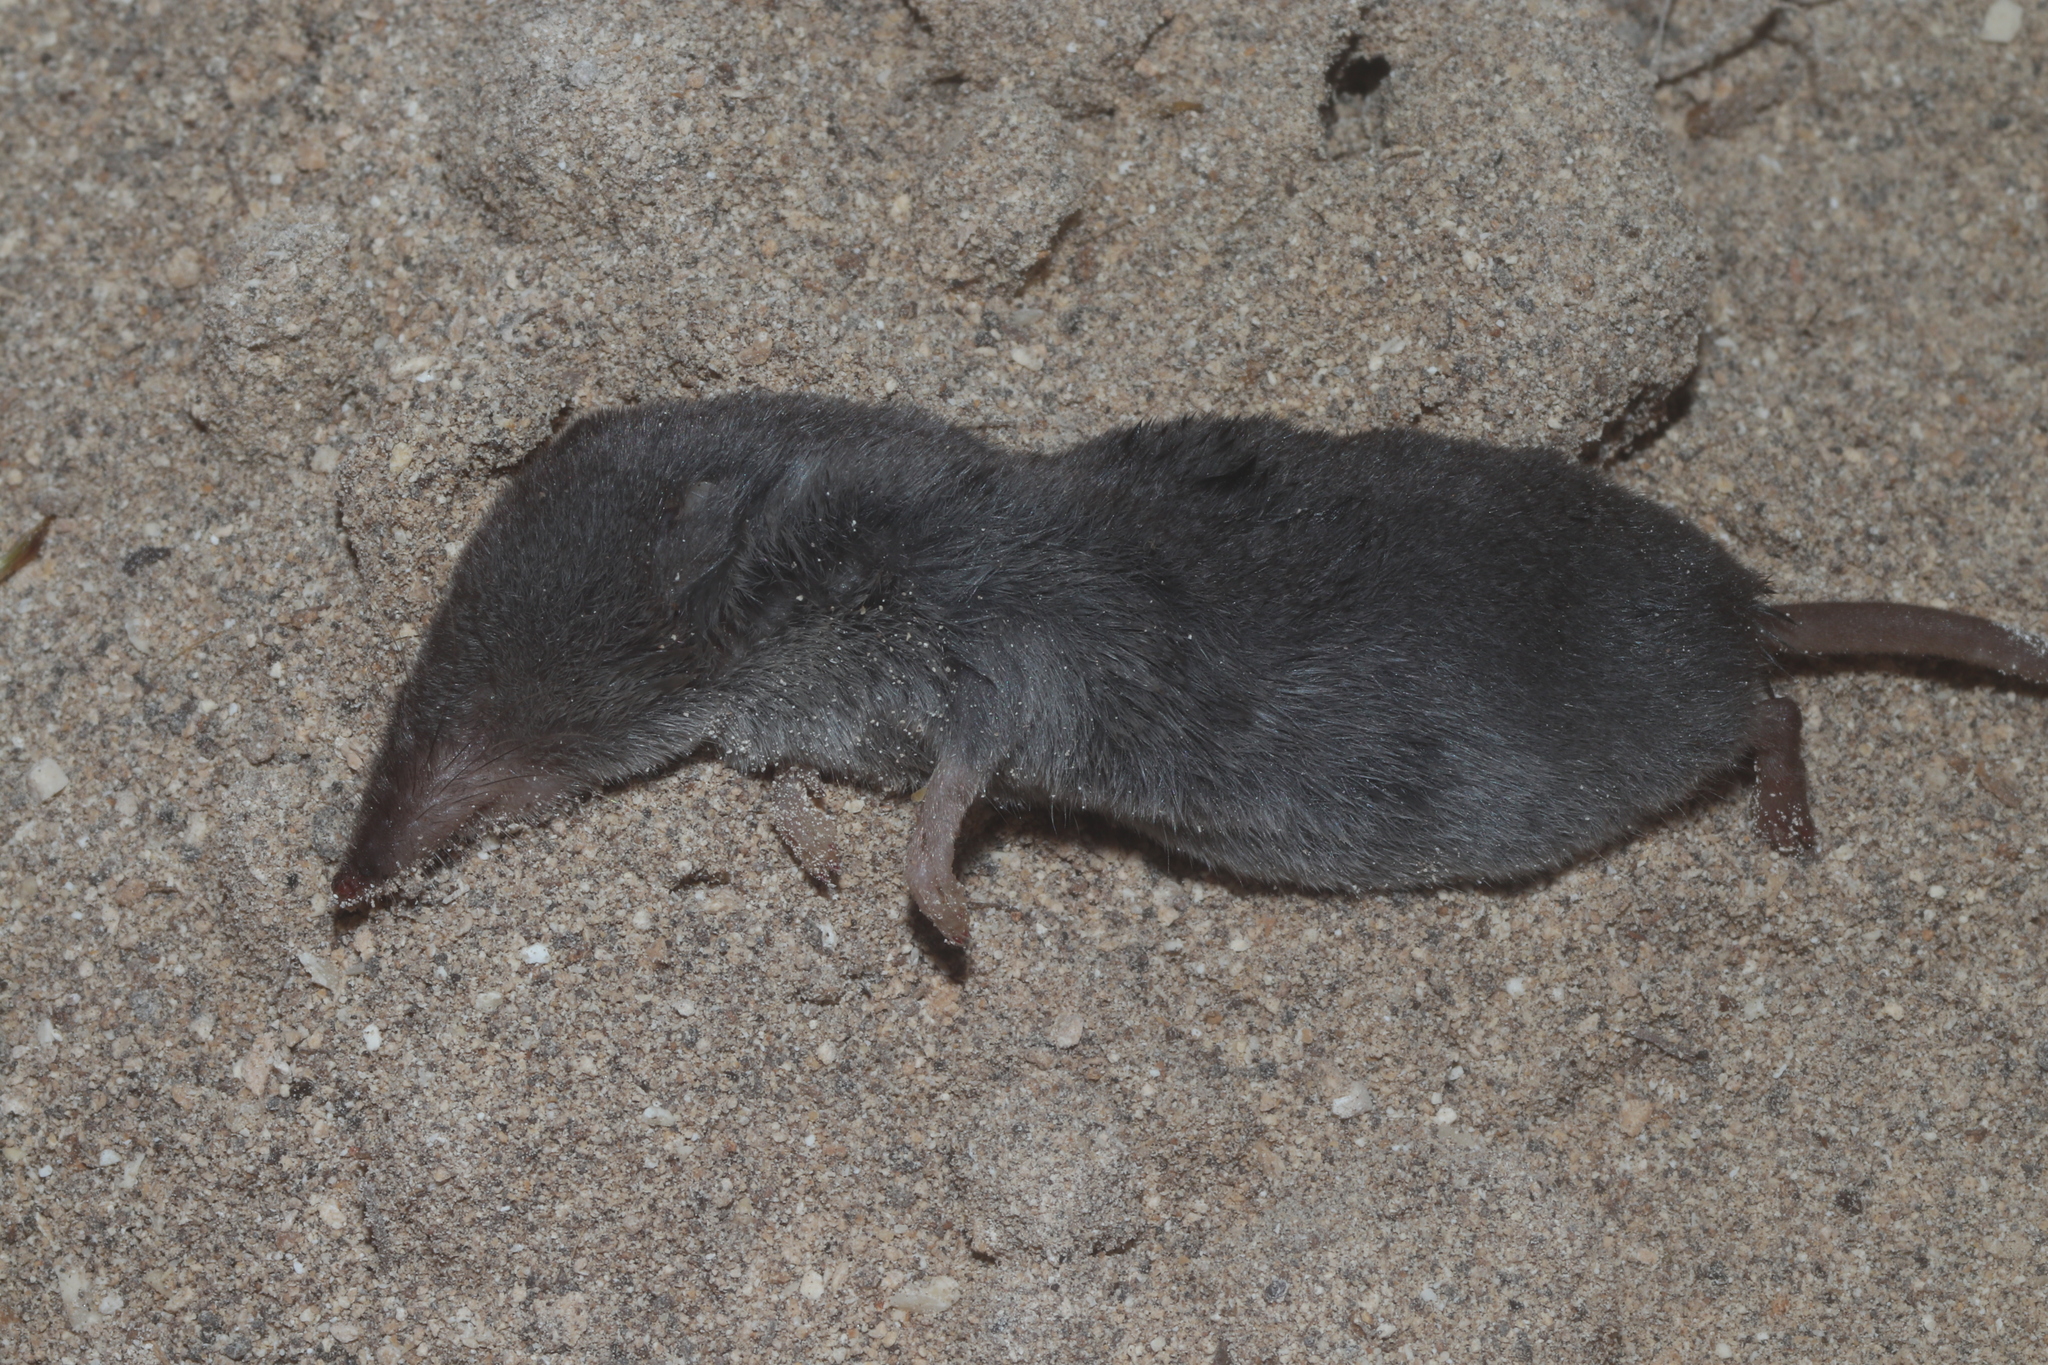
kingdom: Animalia
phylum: Chordata
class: Mammalia
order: Soricomorpha
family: Soricidae
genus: Cryptotis
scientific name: Cryptotis mayensis
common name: Yucatan small-eared shrew
